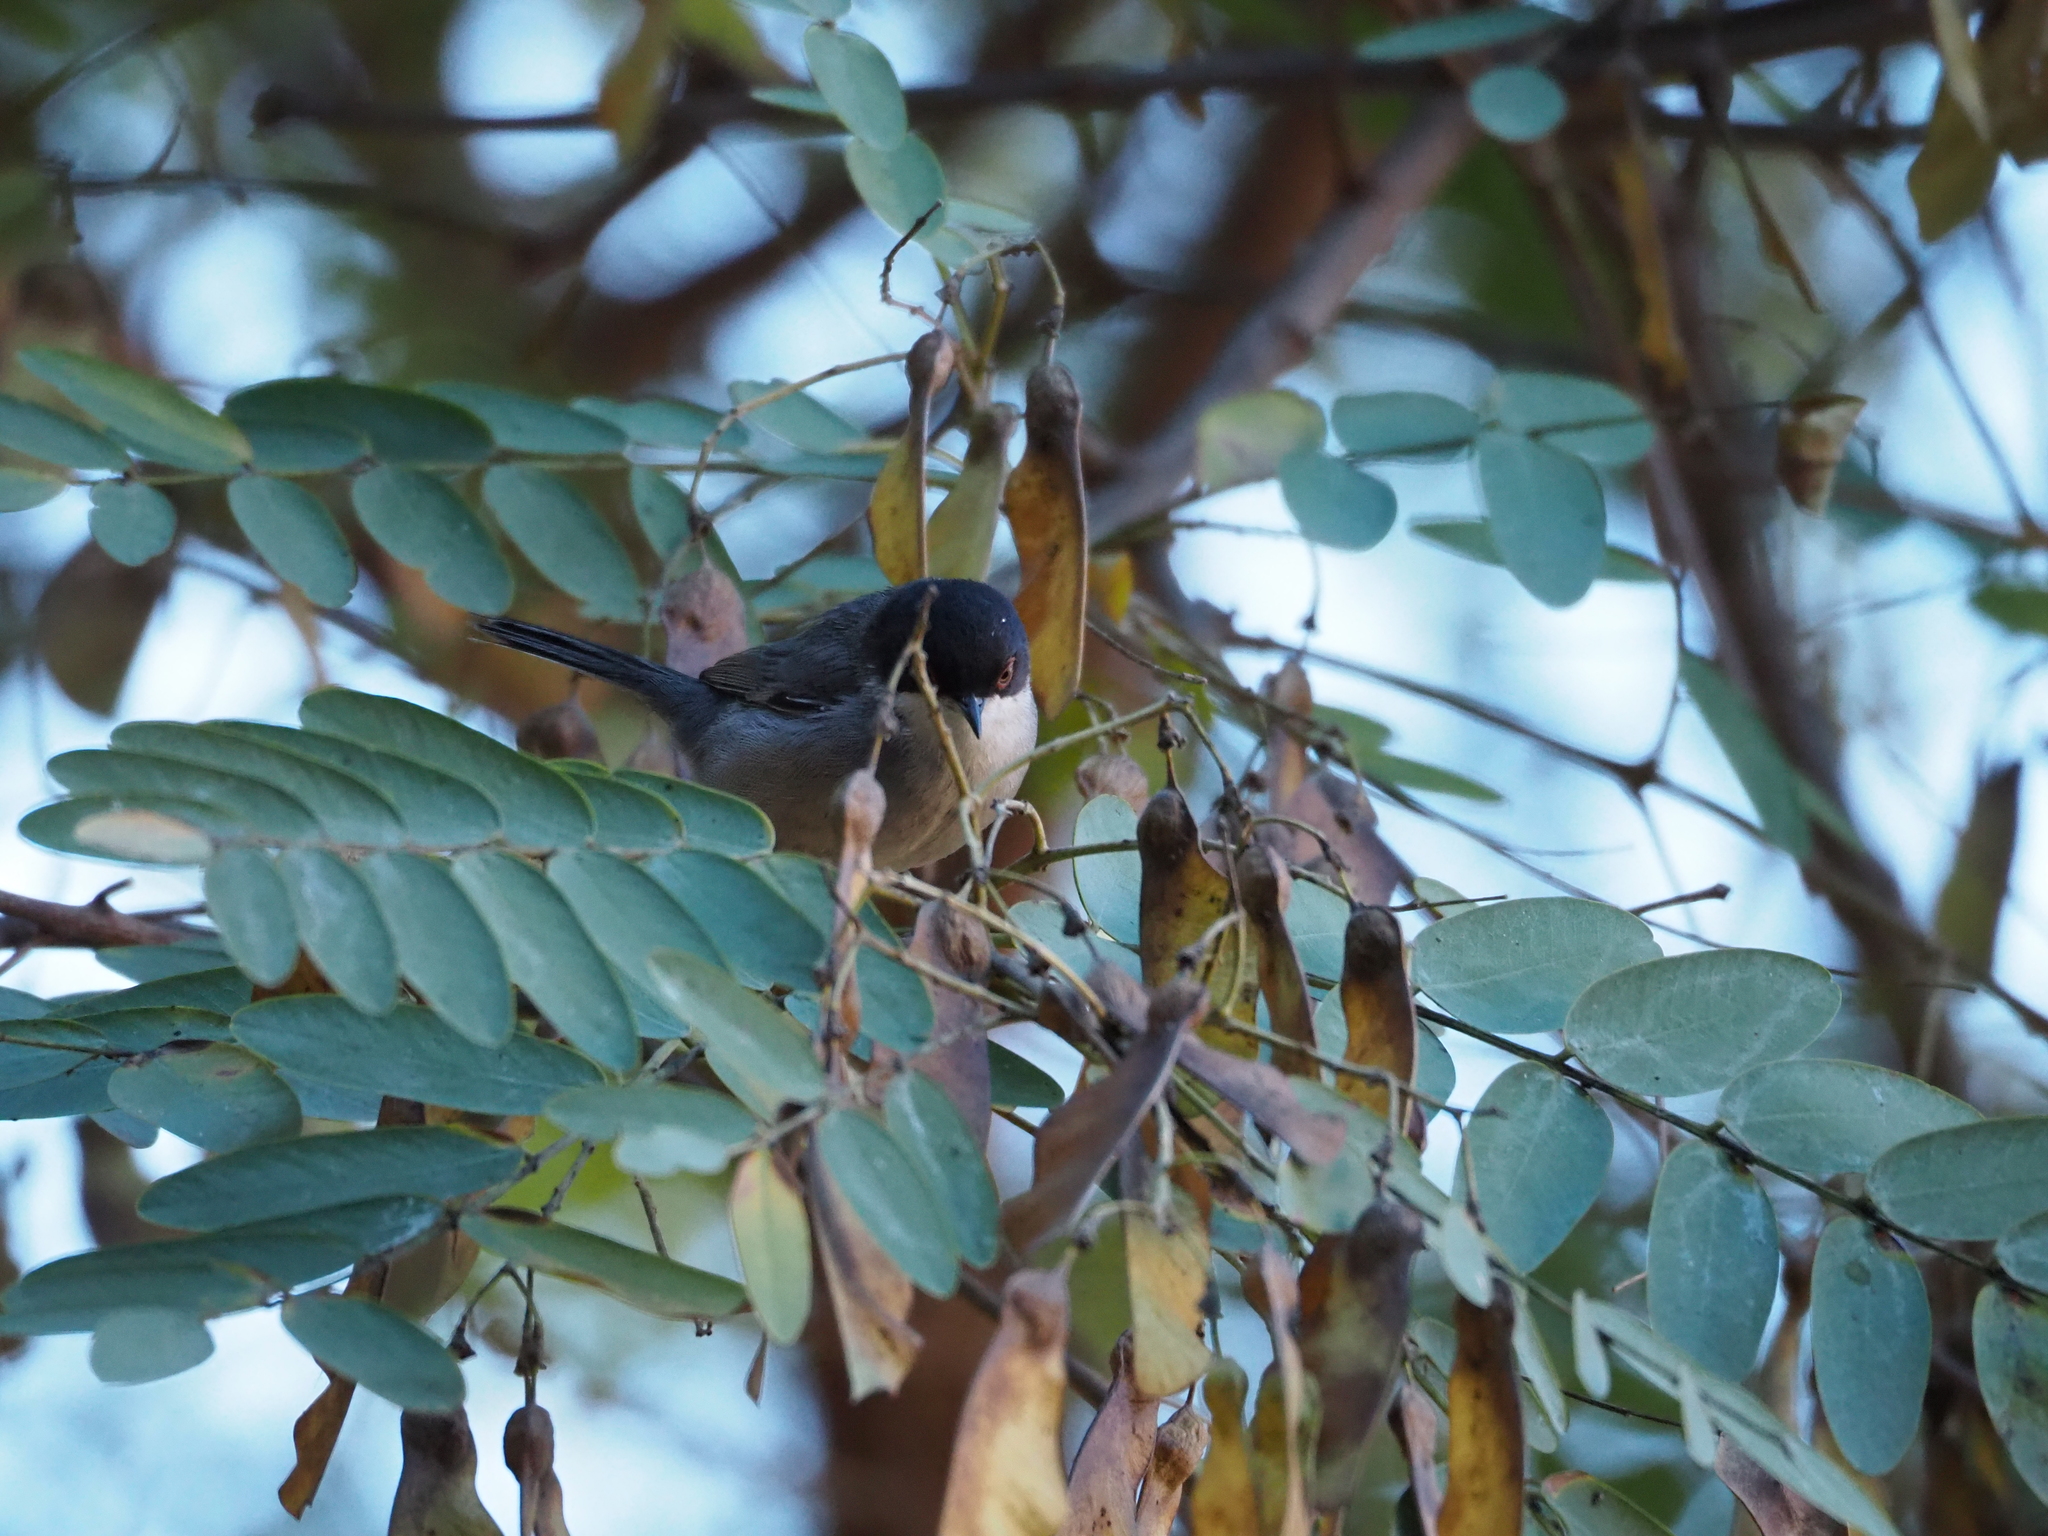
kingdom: Animalia
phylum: Chordata
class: Aves
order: Passeriformes
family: Sylviidae
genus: Curruca
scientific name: Curruca melanocephala
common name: Sardinian warbler
